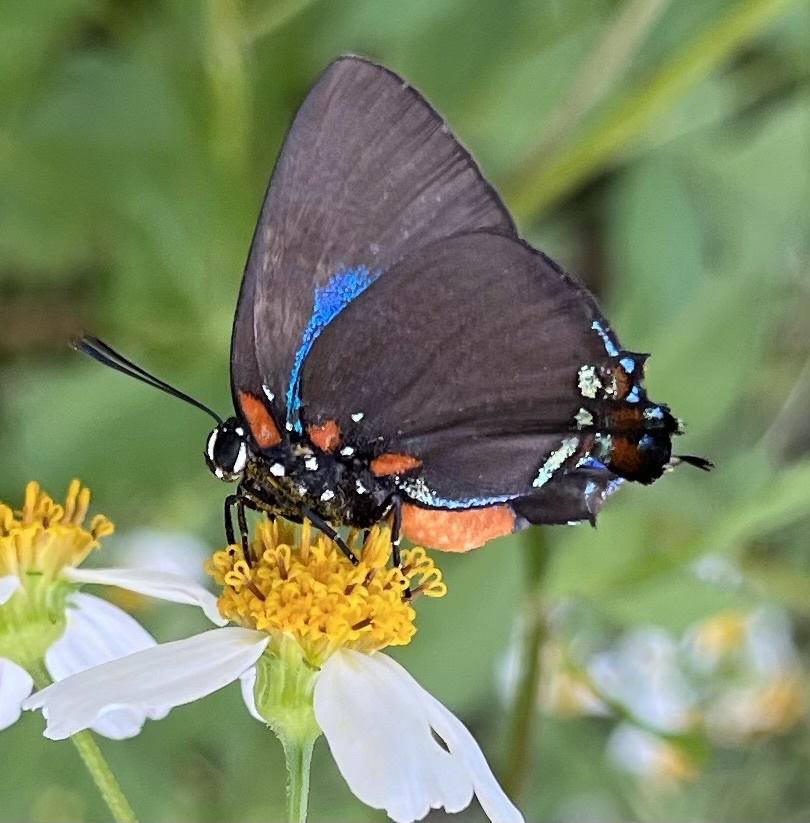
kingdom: Animalia
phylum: Arthropoda
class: Insecta
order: Lepidoptera
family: Lycaenidae
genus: Atlides
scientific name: Atlides halesus
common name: Great purple hairstreak
